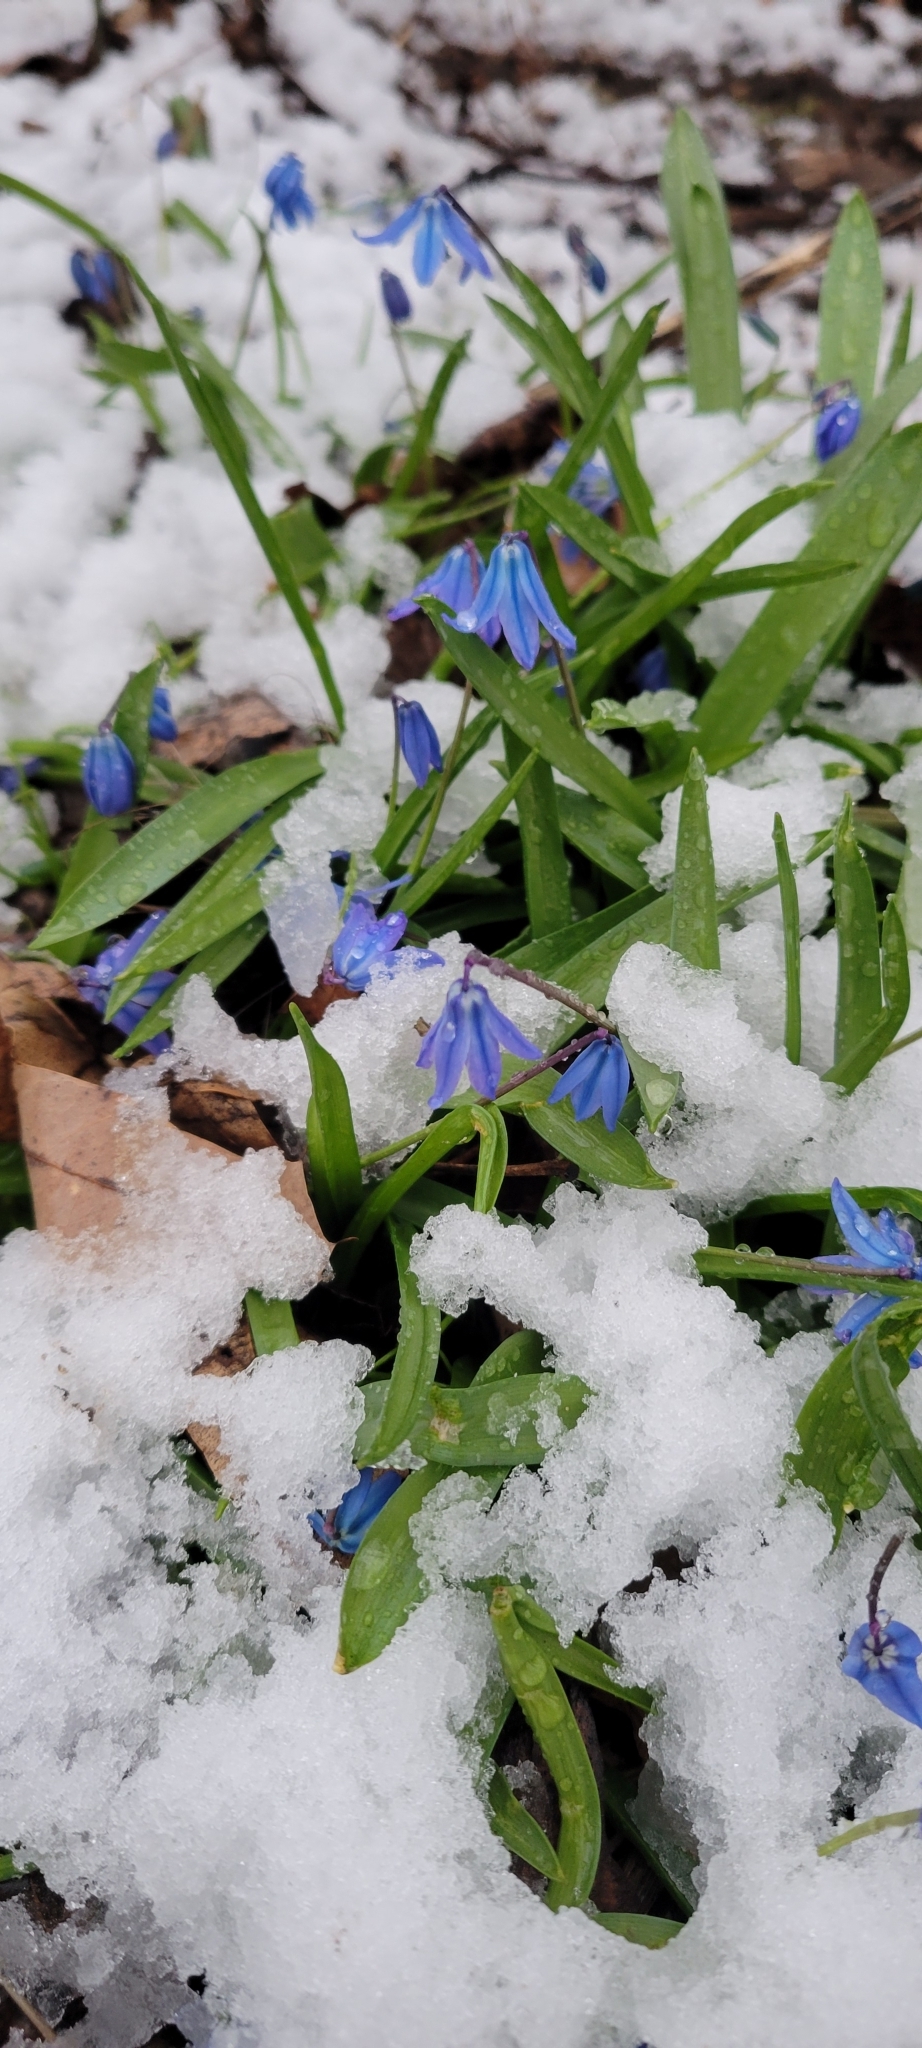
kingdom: Plantae
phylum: Tracheophyta
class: Liliopsida
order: Asparagales
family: Asparagaceae
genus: Scilla
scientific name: Scilla siberica
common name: Siberian squill
